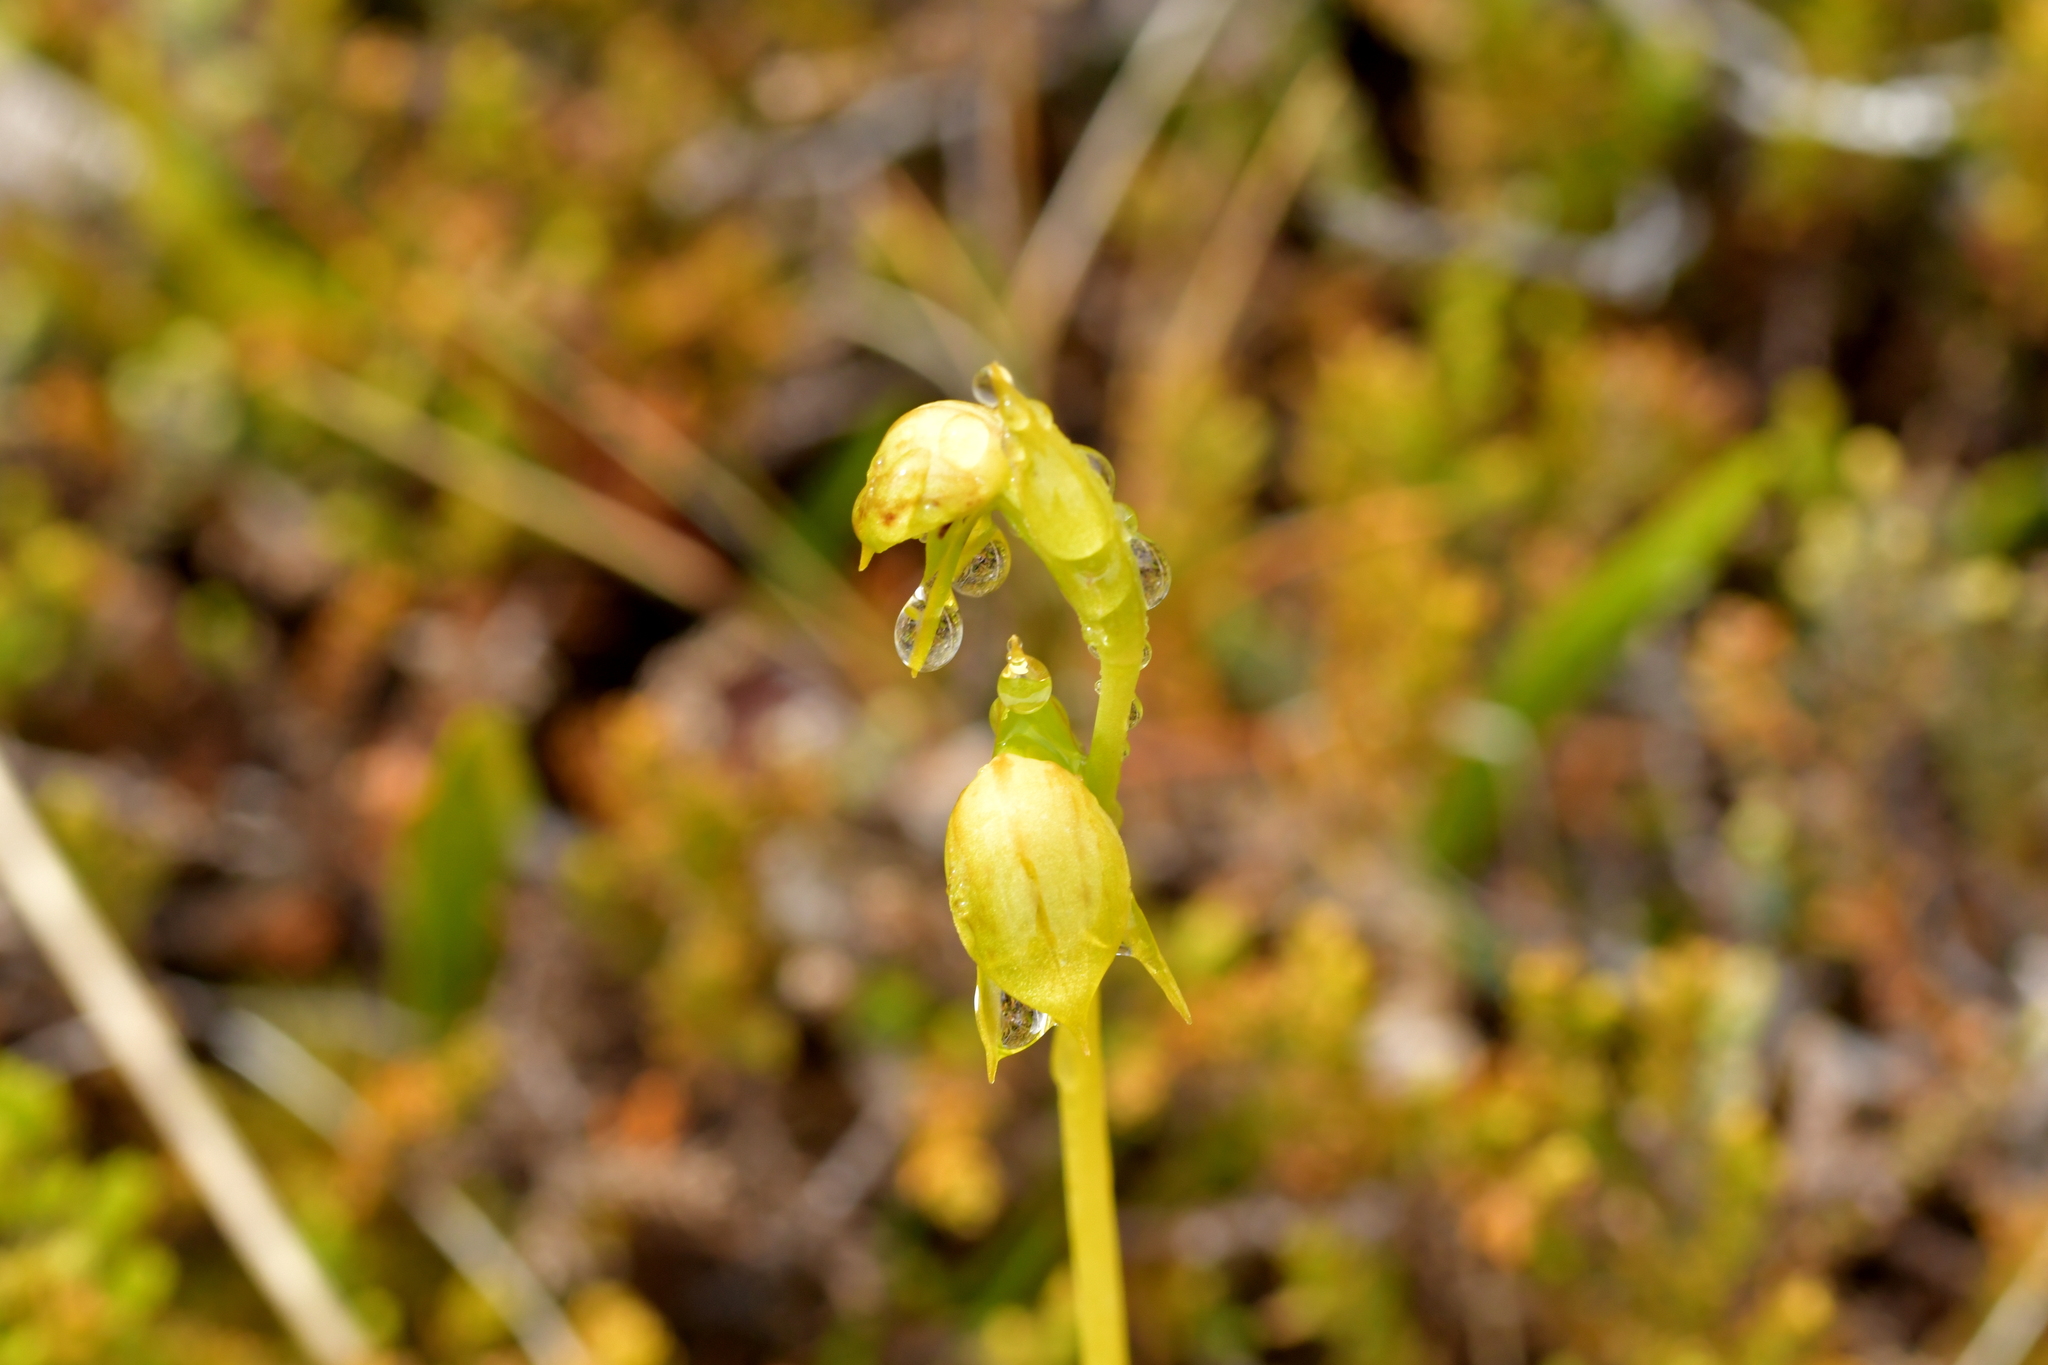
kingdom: Plantae
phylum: Tracheophyta
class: Liliopsida
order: Asparagales
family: Orchidaceae
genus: Waireia
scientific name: Waireia stenopetala
